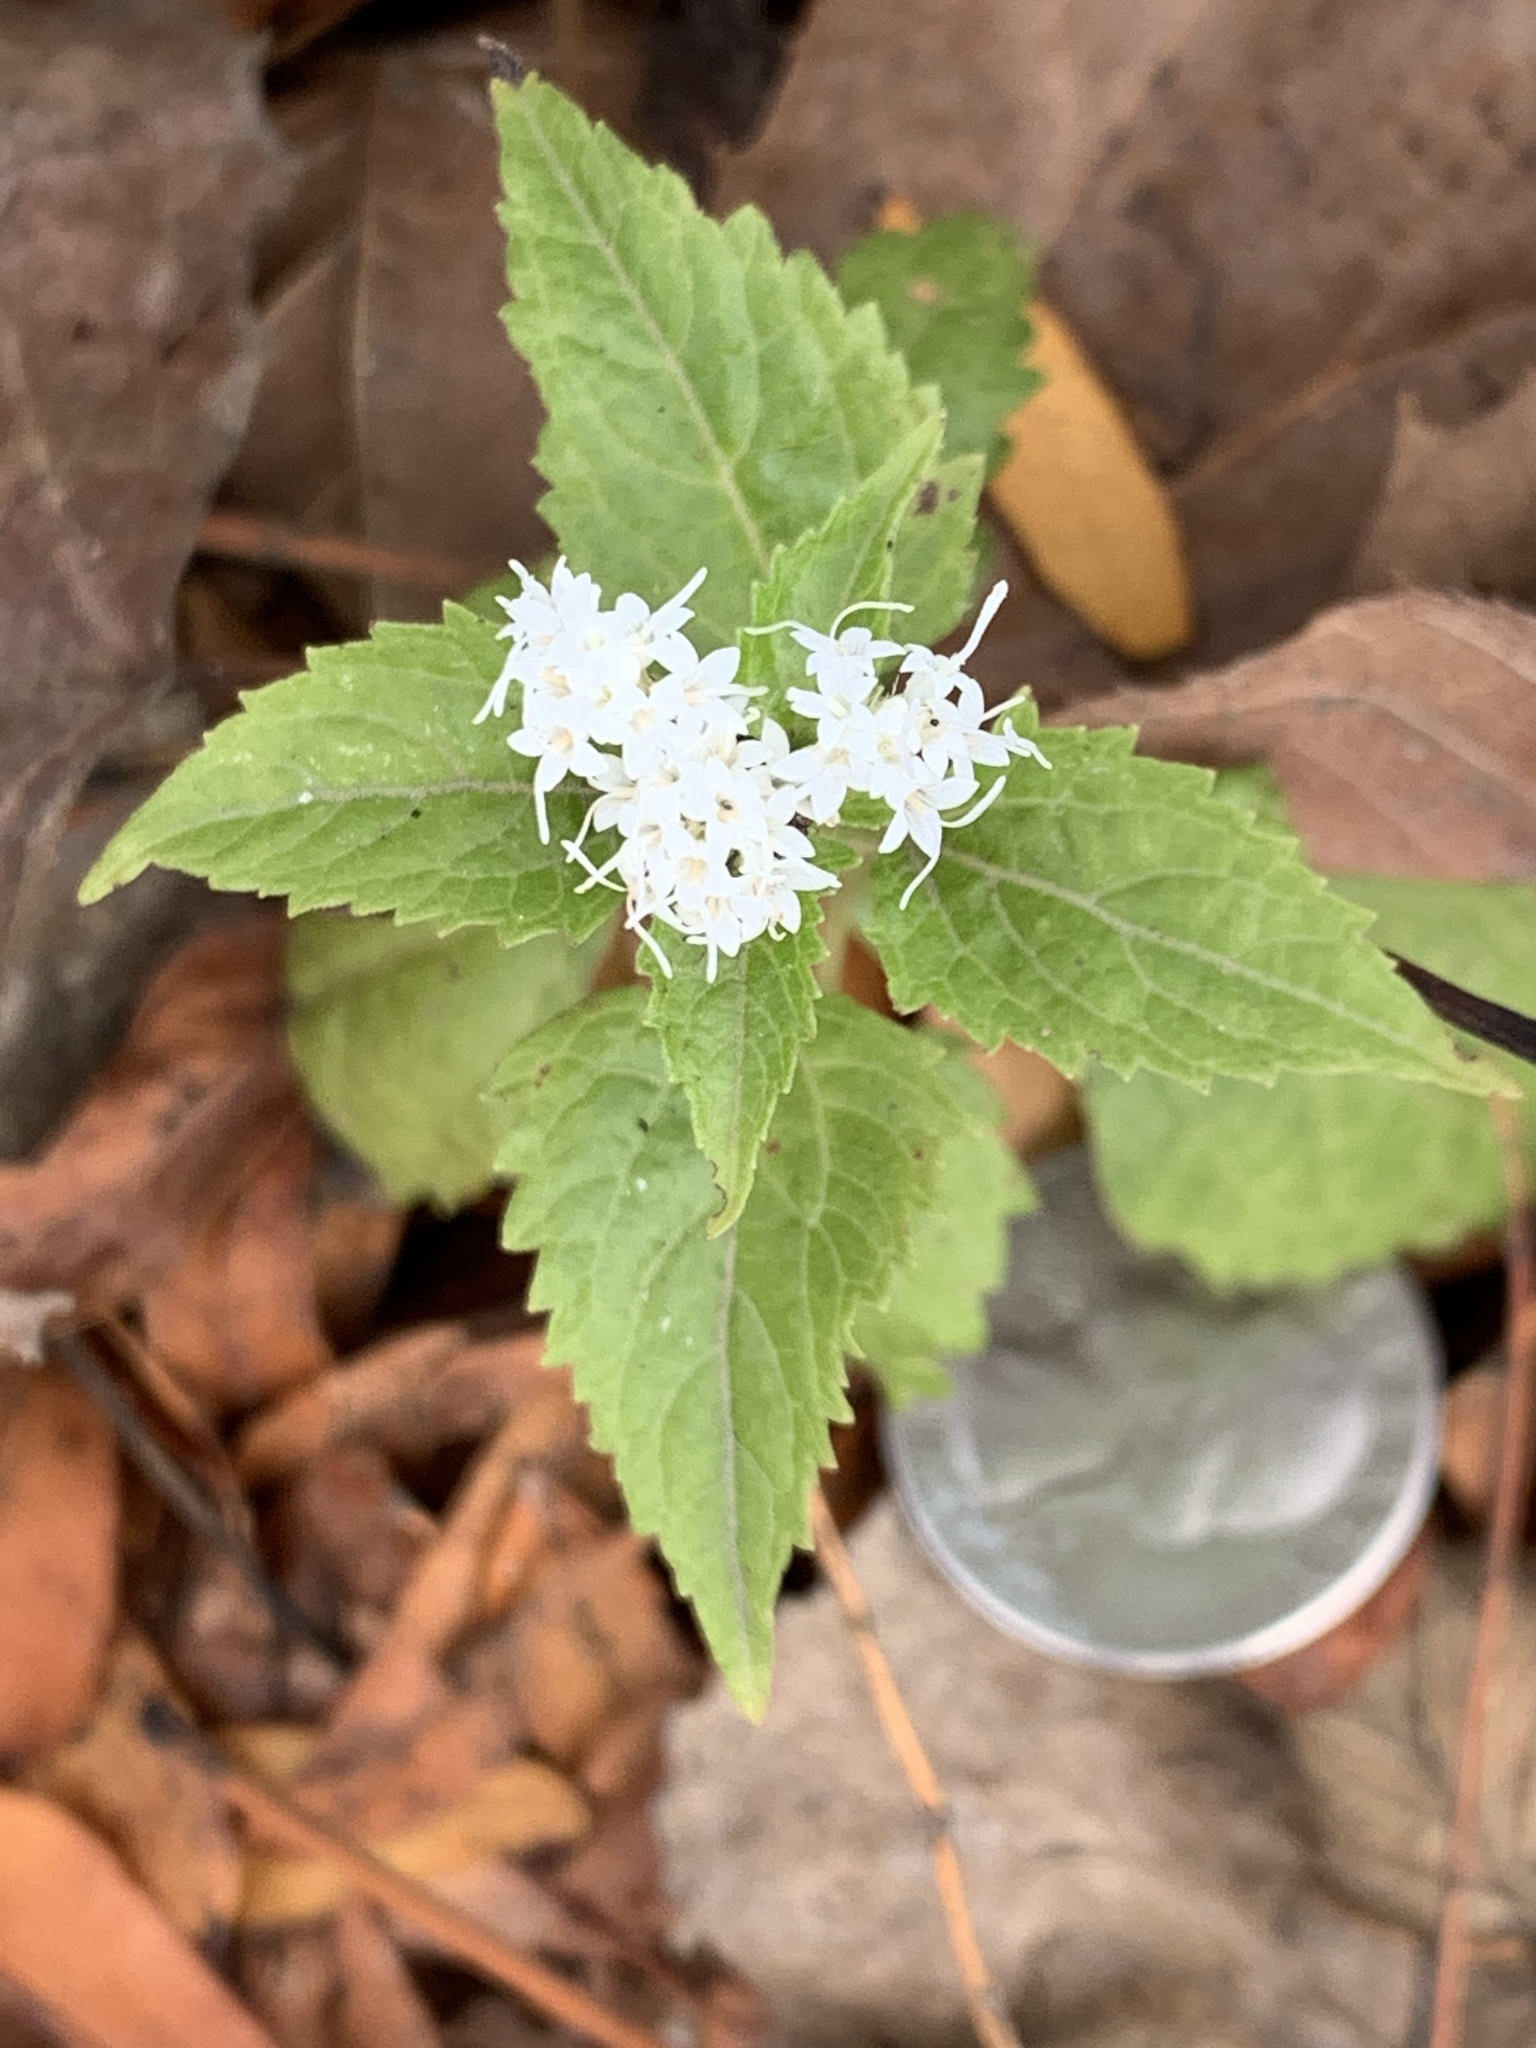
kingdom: Plantae
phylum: Tracheophyta
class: Magnoliopsida
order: Asterales
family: Asteraceae
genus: Ageratina
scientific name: Ageratina altissima
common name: White snakeroot
